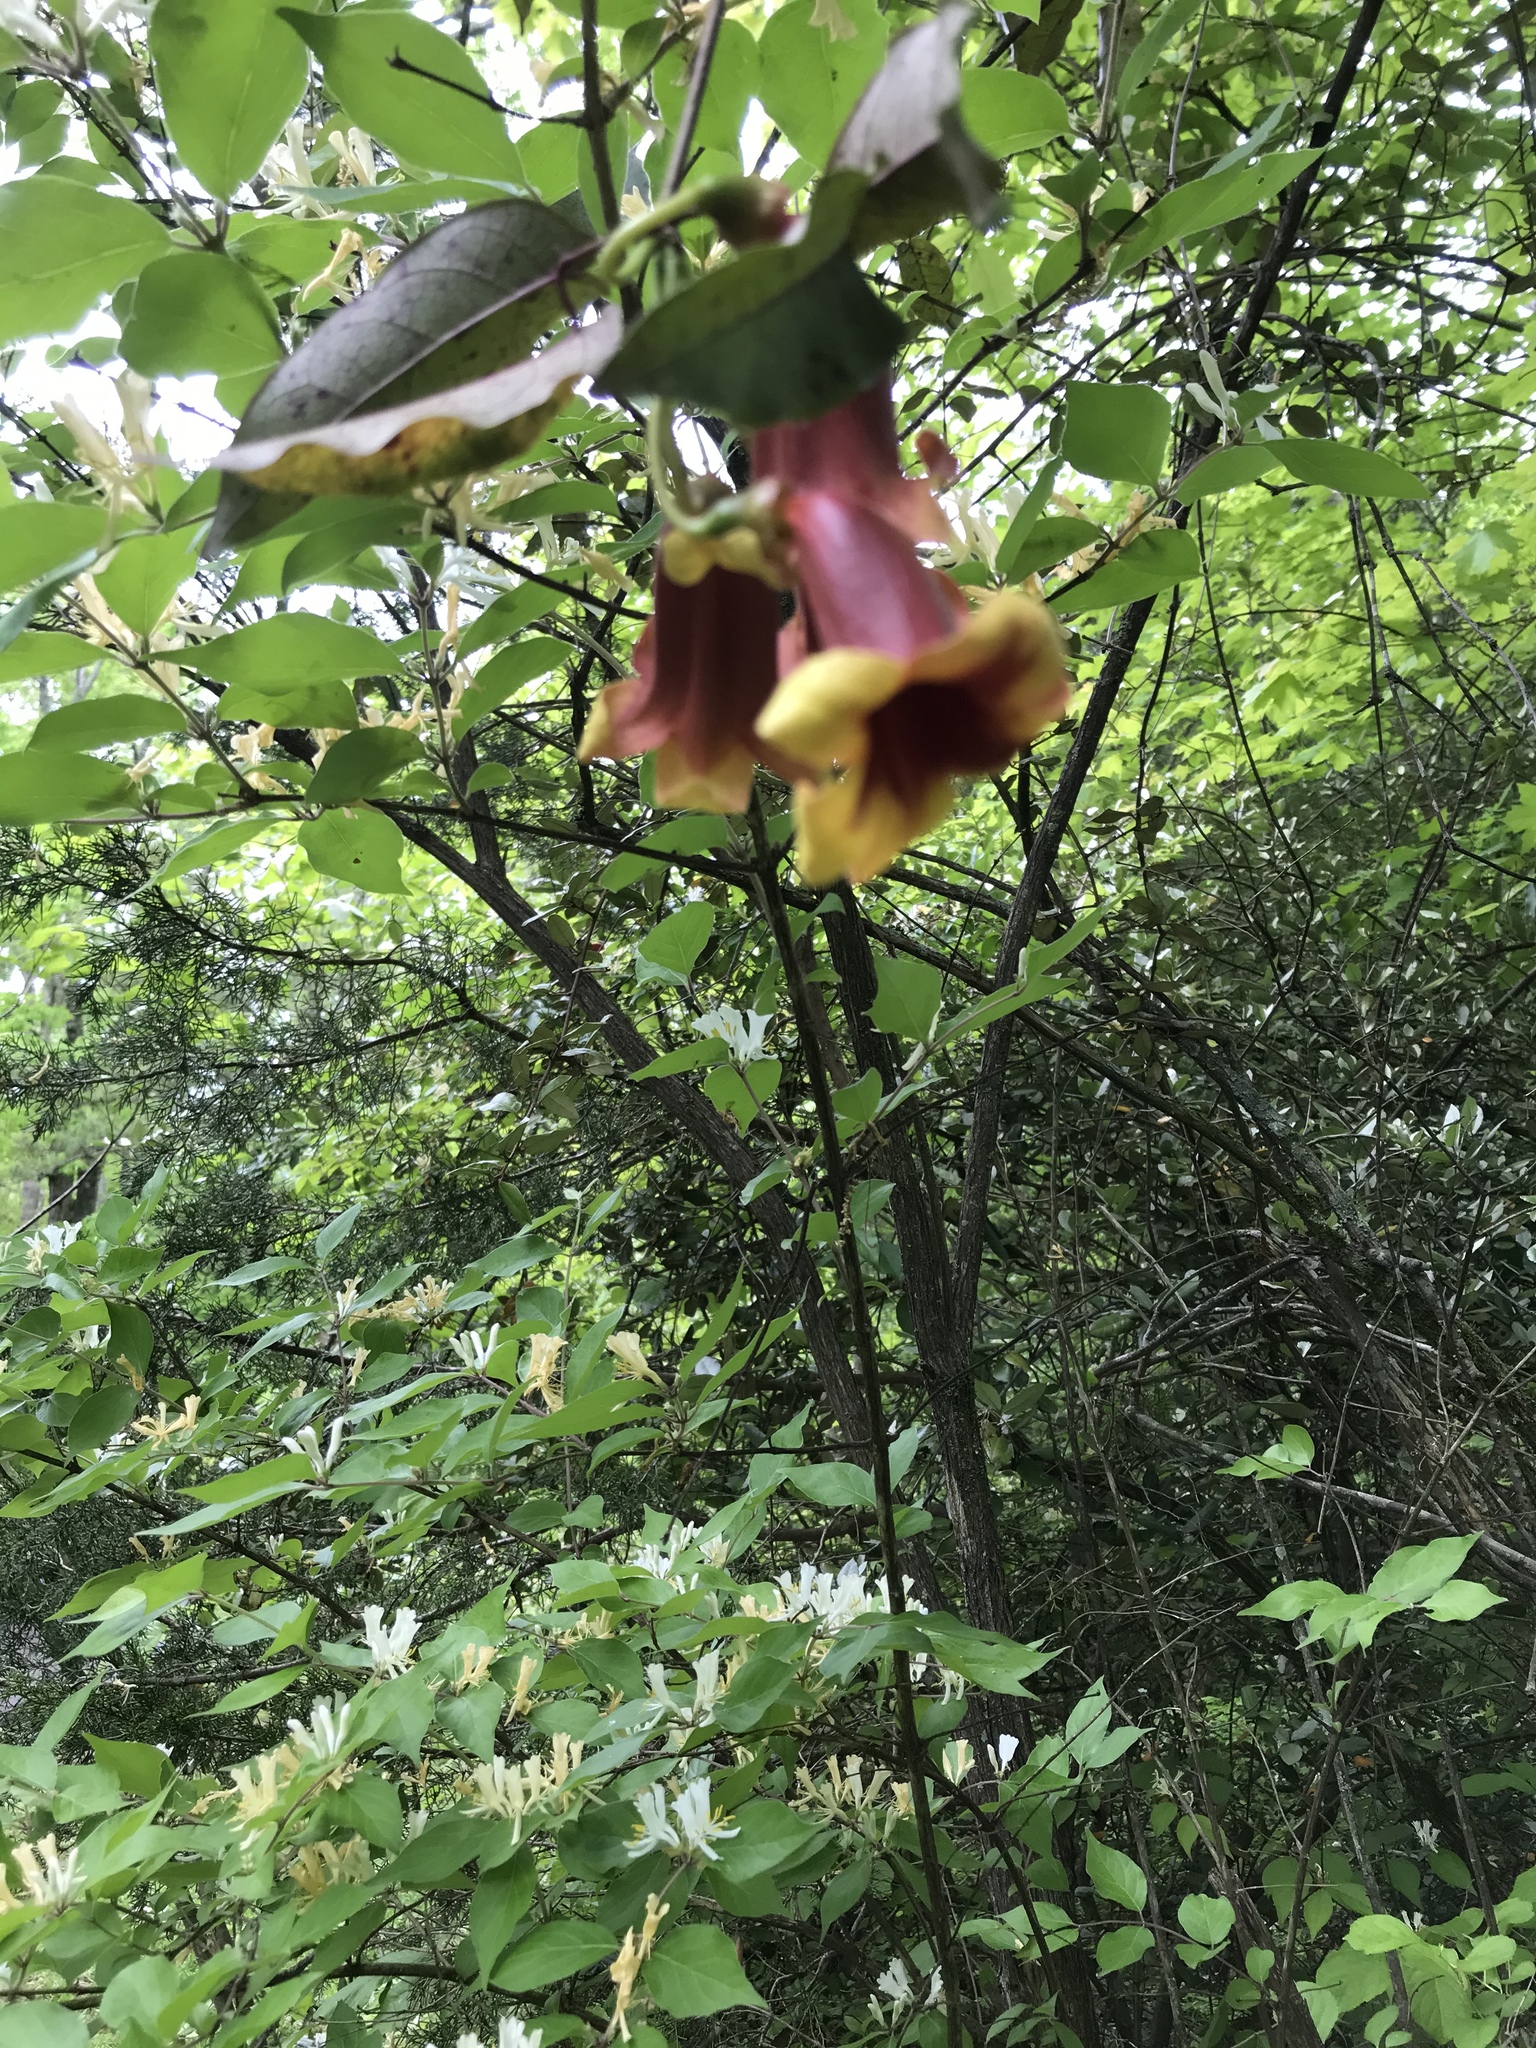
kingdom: Plantae
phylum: Tracheophyta
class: Magnoliopsida
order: Lamiales
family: Bignoniaceae
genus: Bignonia
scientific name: Bignonia capreolata
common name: Crossvine
